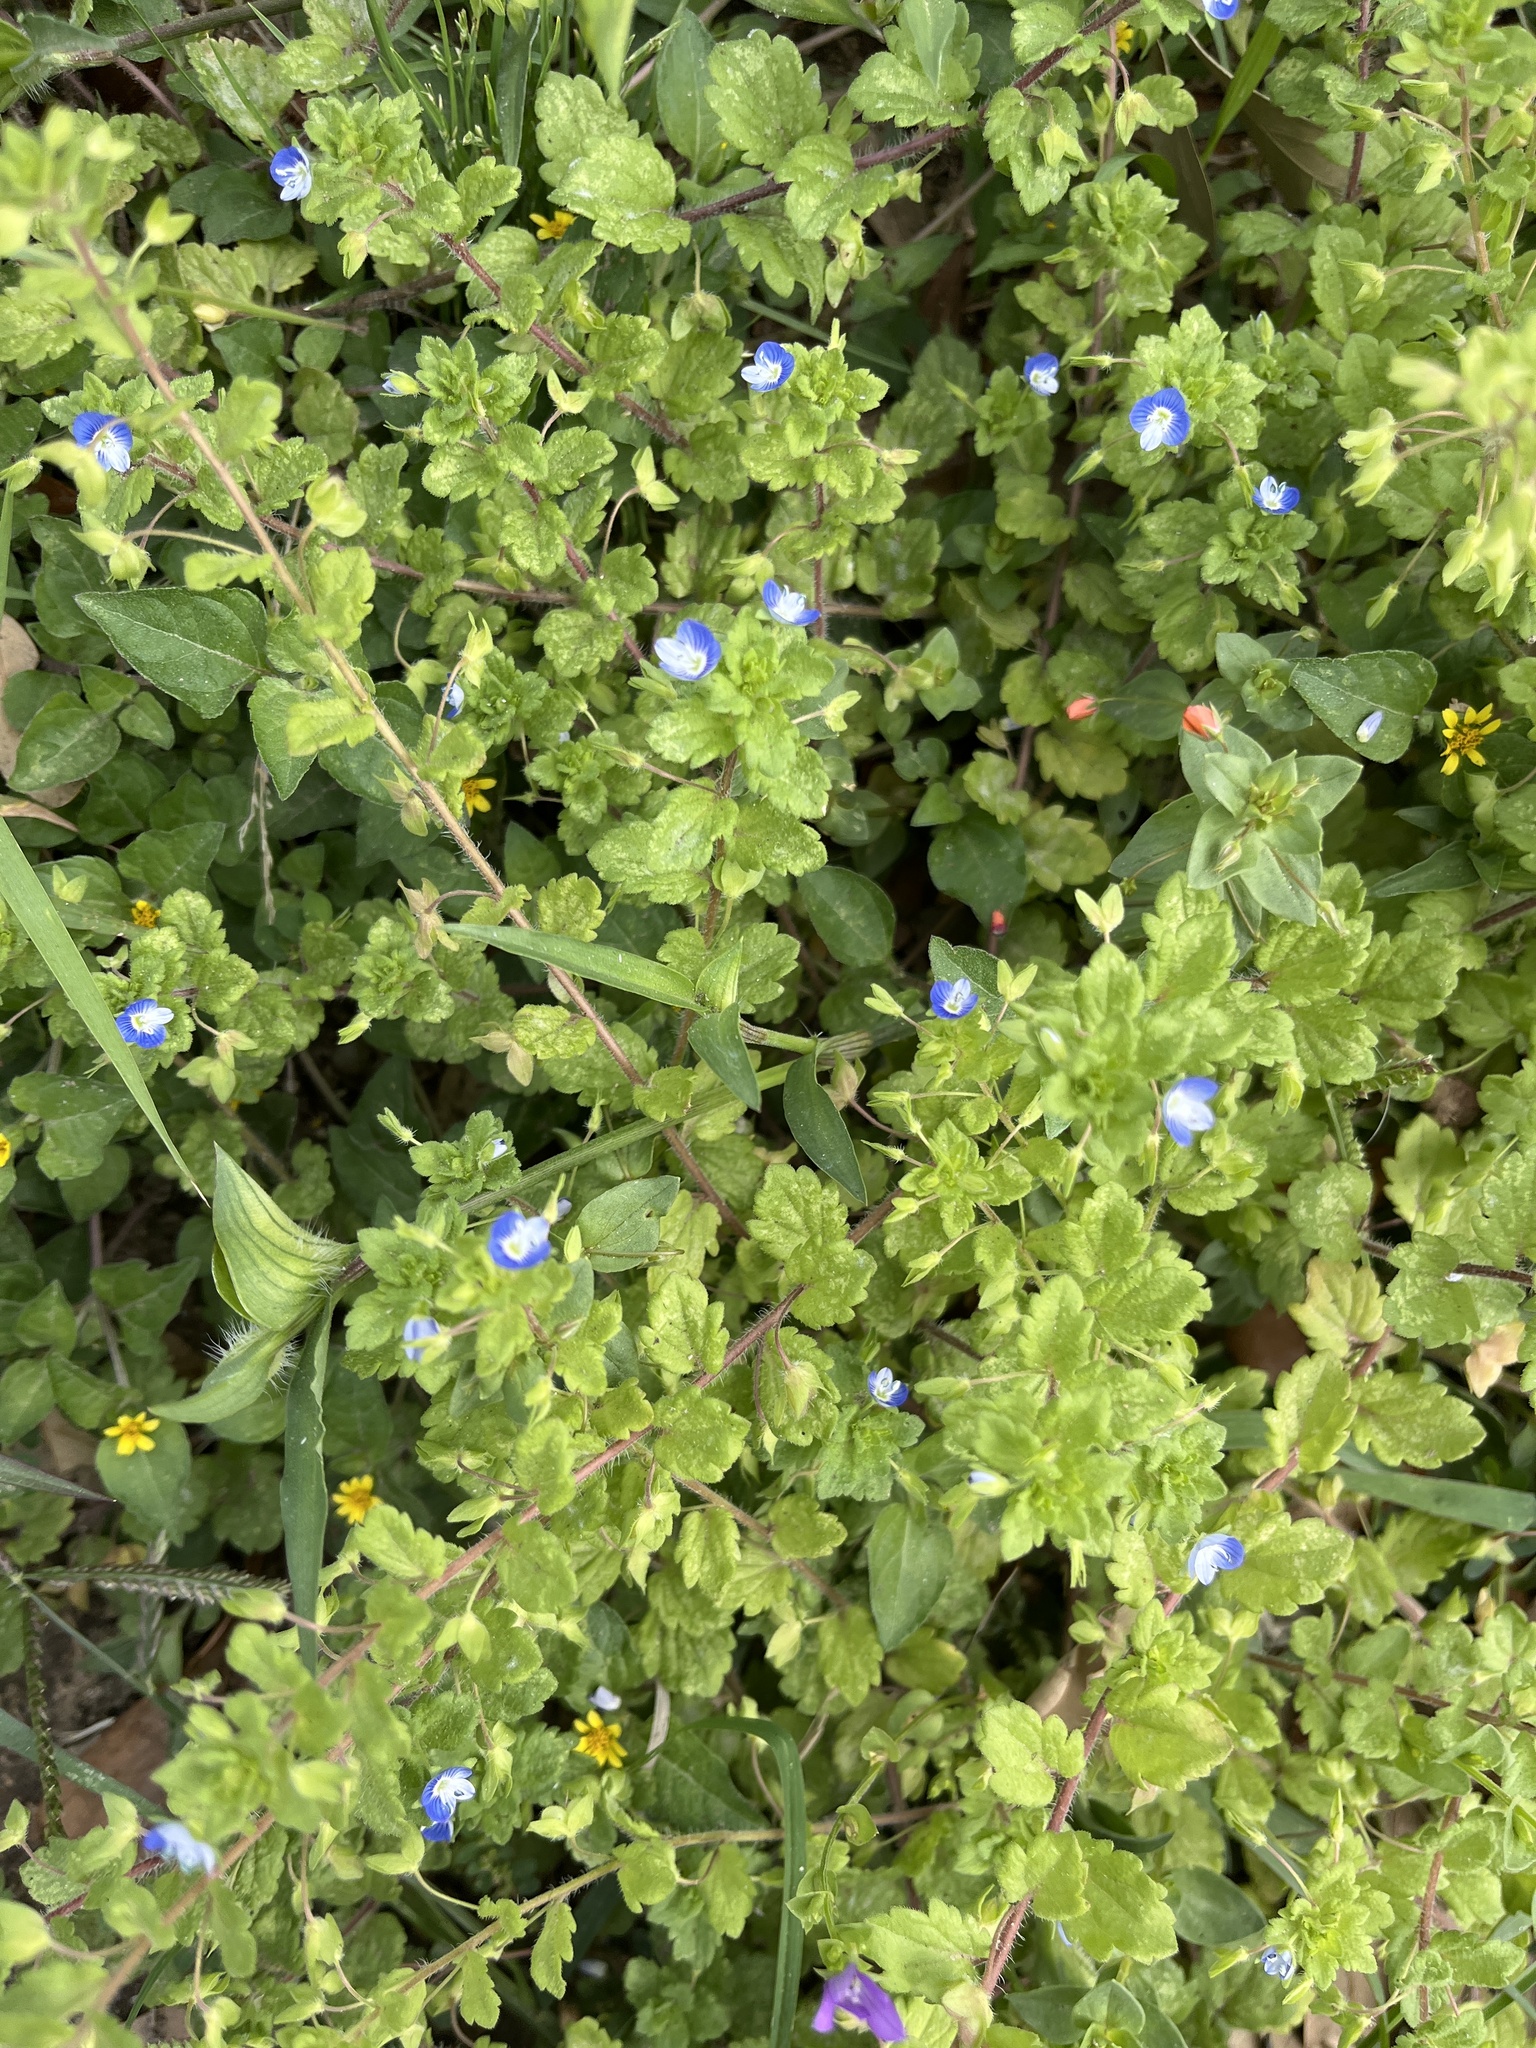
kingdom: Plantae
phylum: Tracheophyta
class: Magnoliopsida
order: Lamiales
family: Plantaginaceae
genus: Veronica
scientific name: Veronica persica
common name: Common field-speedwell
